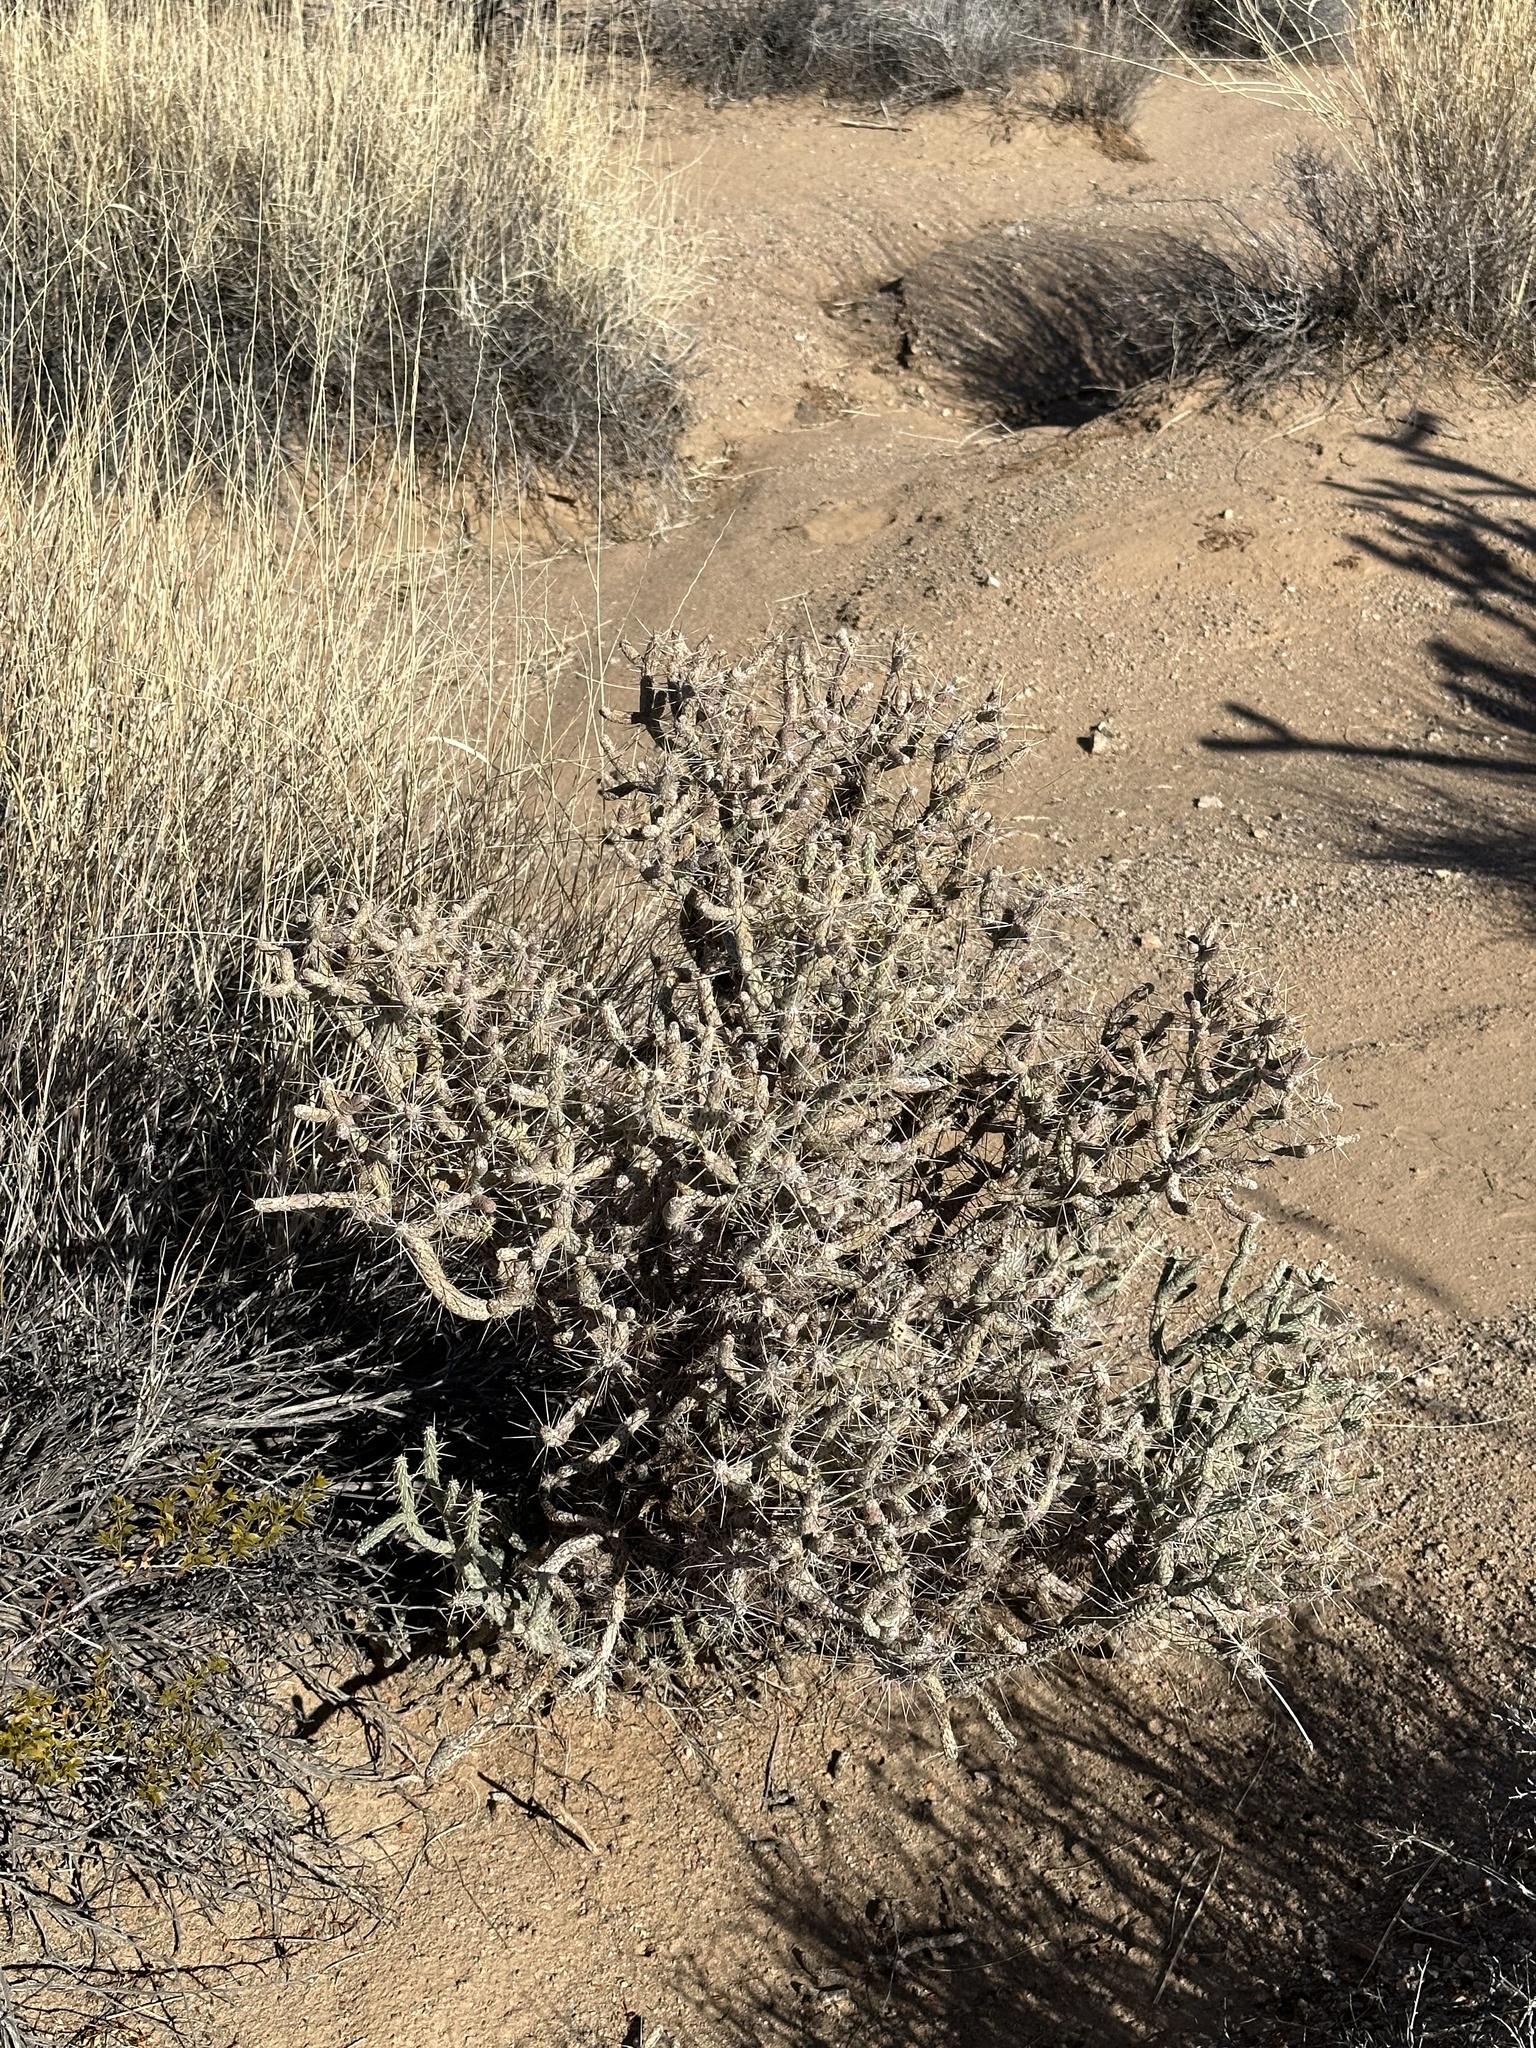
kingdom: Plantae
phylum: Tracheophyta
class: Magnoliopsida
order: Caryophyllales
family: Cactaceae
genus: Cylindropuntia
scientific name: Cylindropuntia ramosissima
